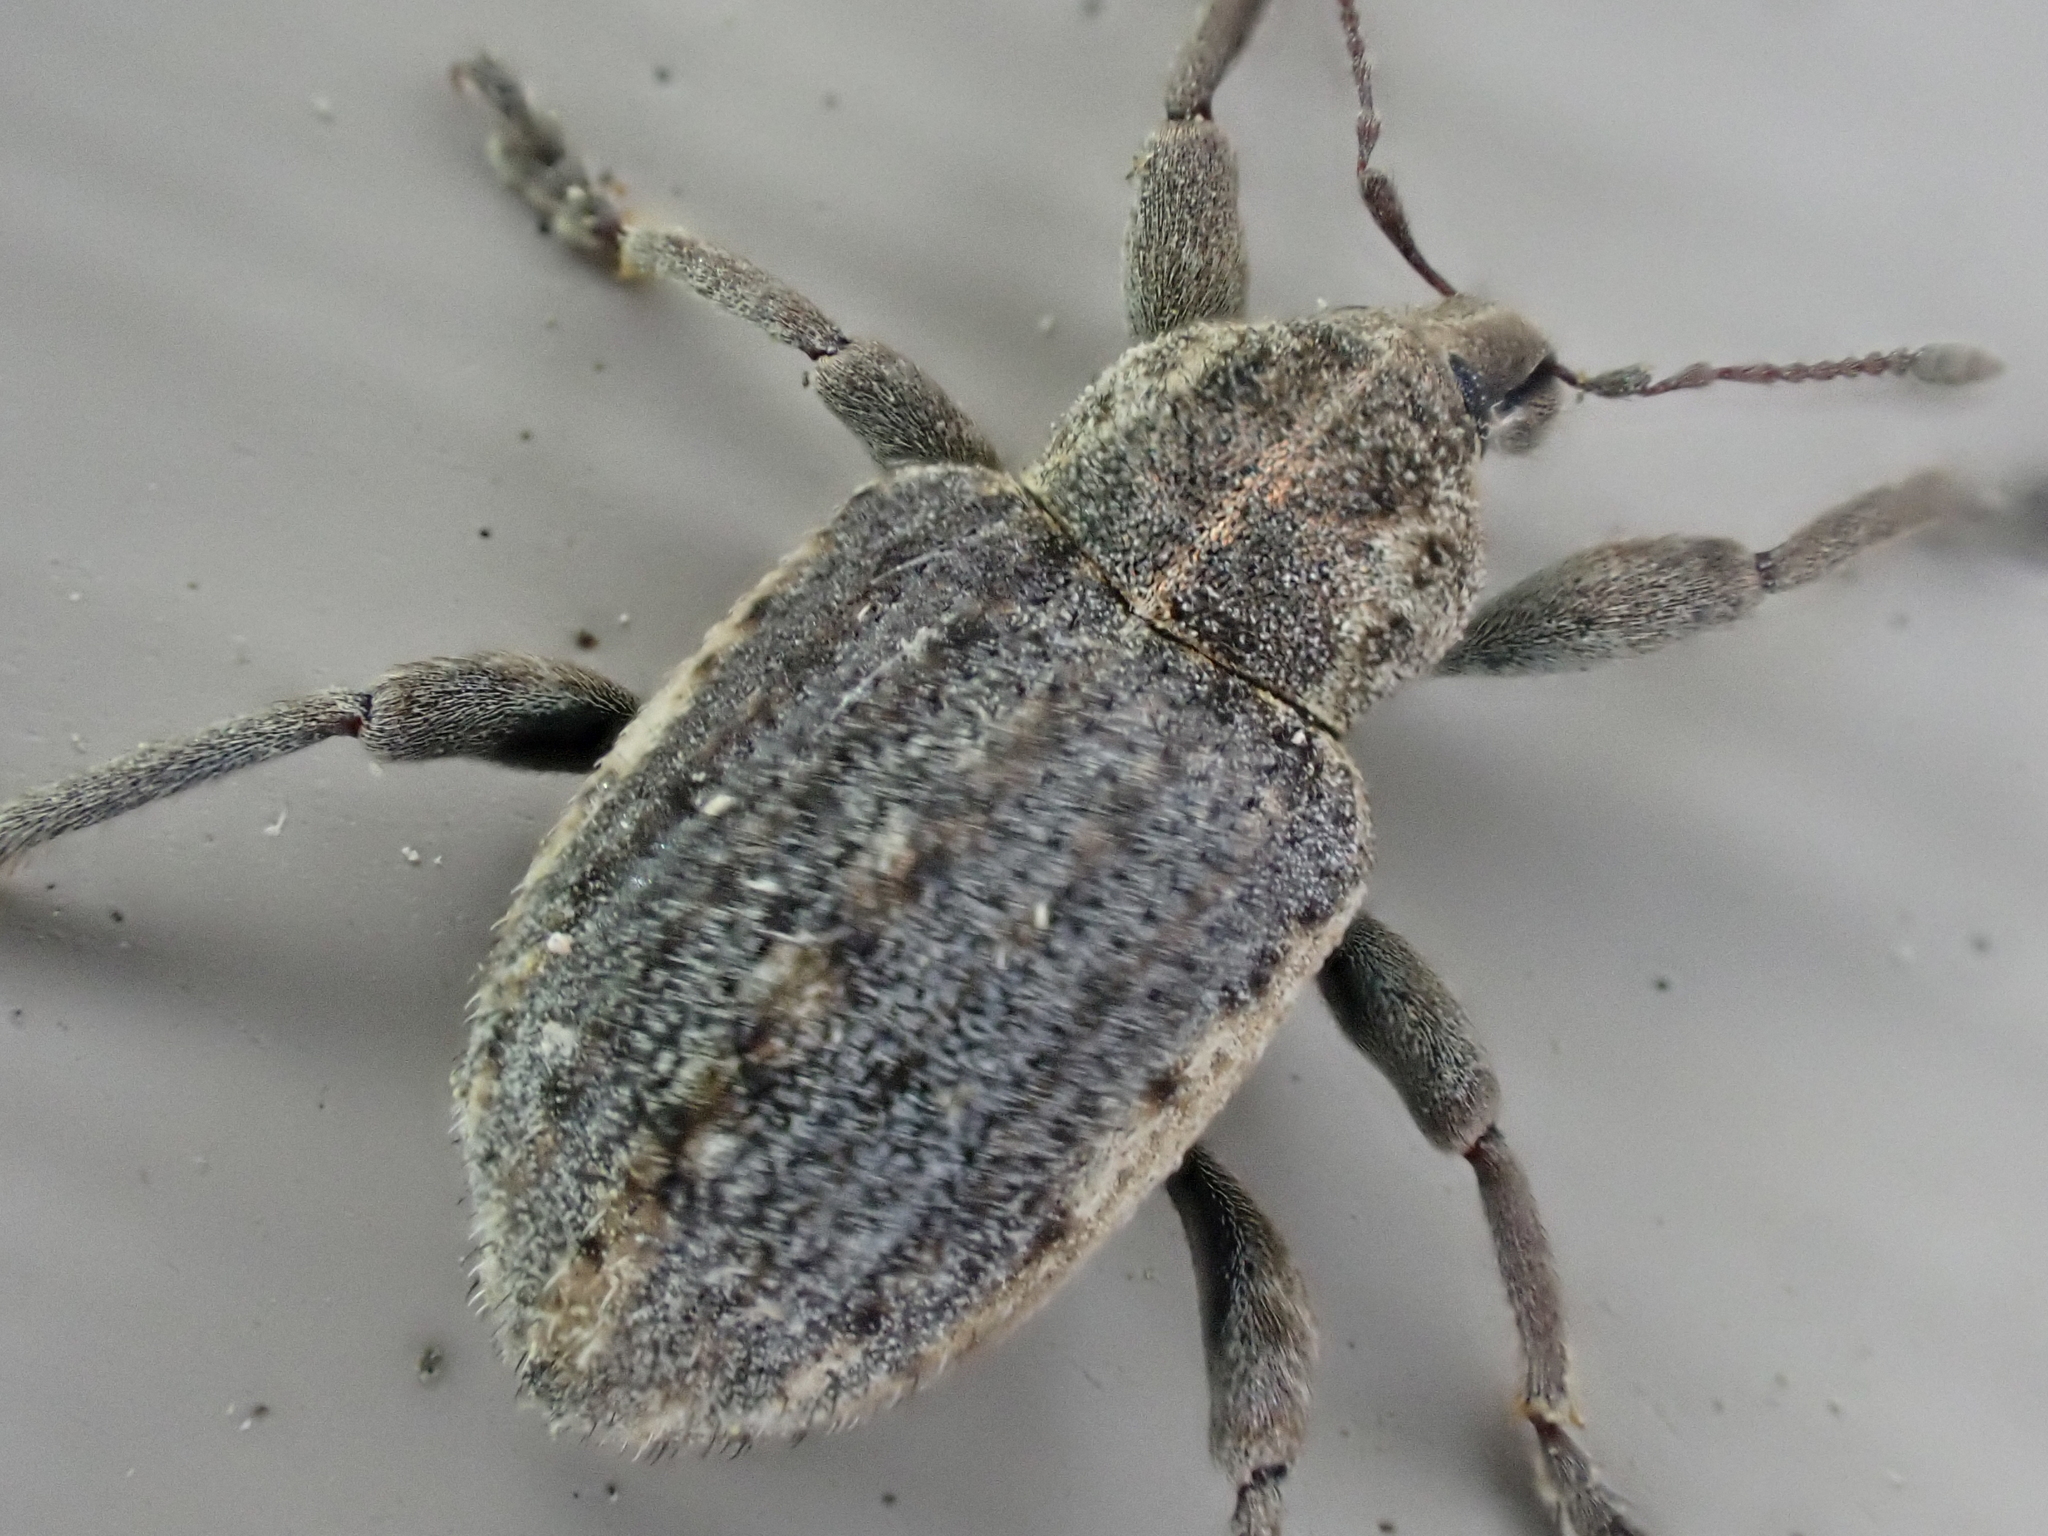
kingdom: Animalia
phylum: Arthropoda
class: Insecta
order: Coleoptera
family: Curculionidae
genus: Brachypera
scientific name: Brachypera zoilus
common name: Clover leaf weevil
